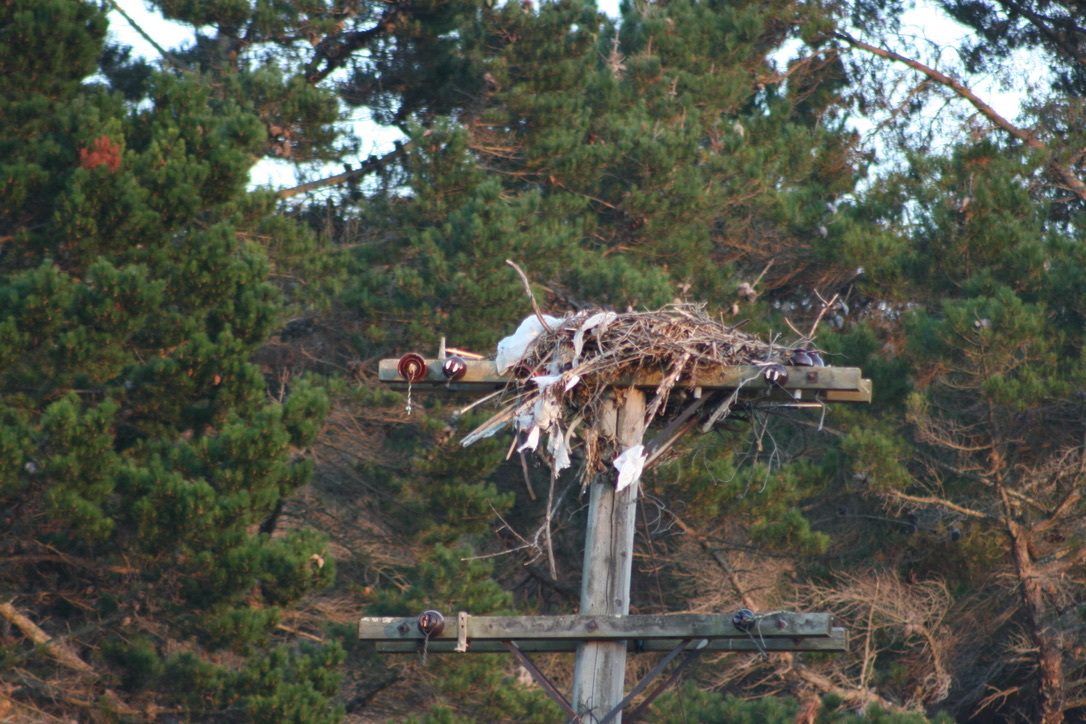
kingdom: Animalia
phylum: Chordata
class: Aves
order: Accipitriformes
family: Pandionidae
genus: Pandion
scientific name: Pandion haliaetus
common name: Osprey
